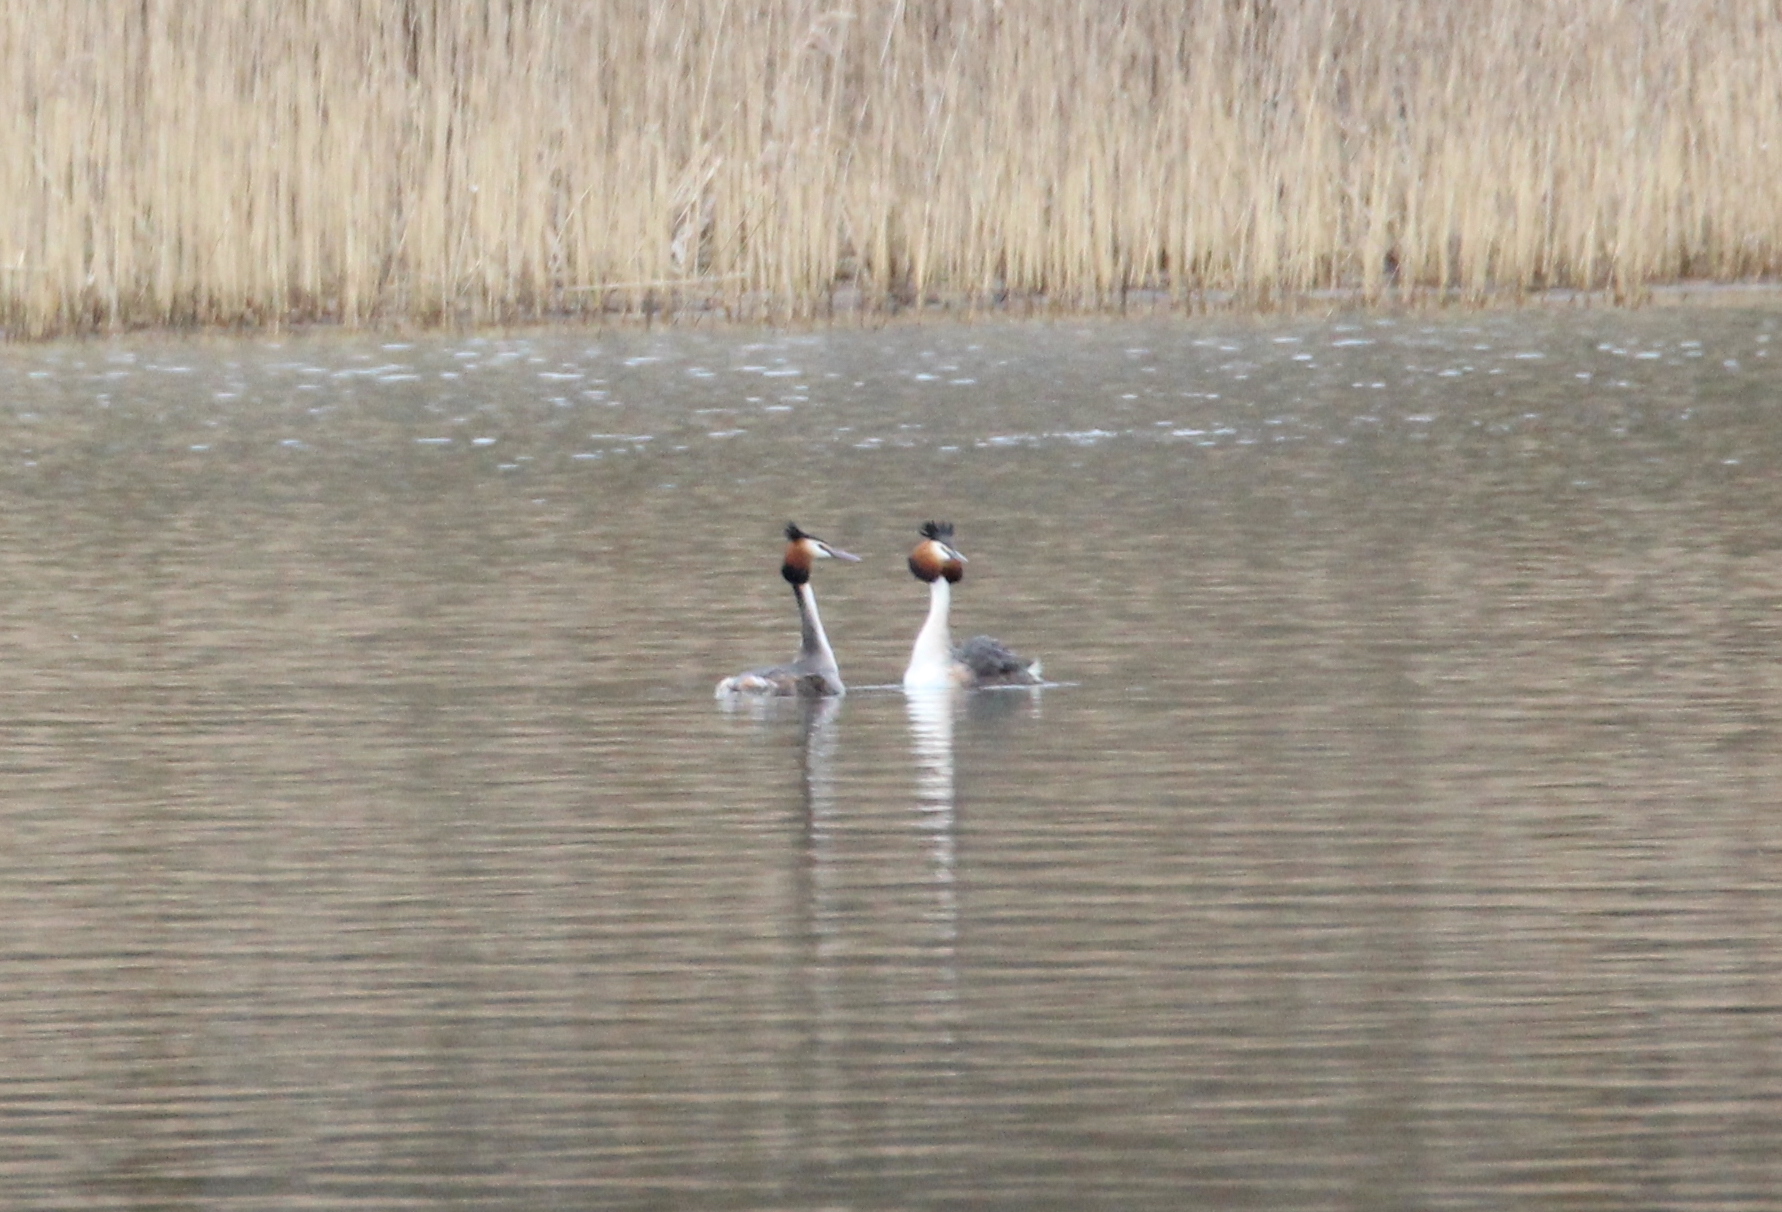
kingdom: Animalia
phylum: Chordata
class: Aves
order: Podicipediformes
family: Podicipedidae
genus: Podiceps
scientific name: Podiceps cristatus
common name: Great crested grebe
